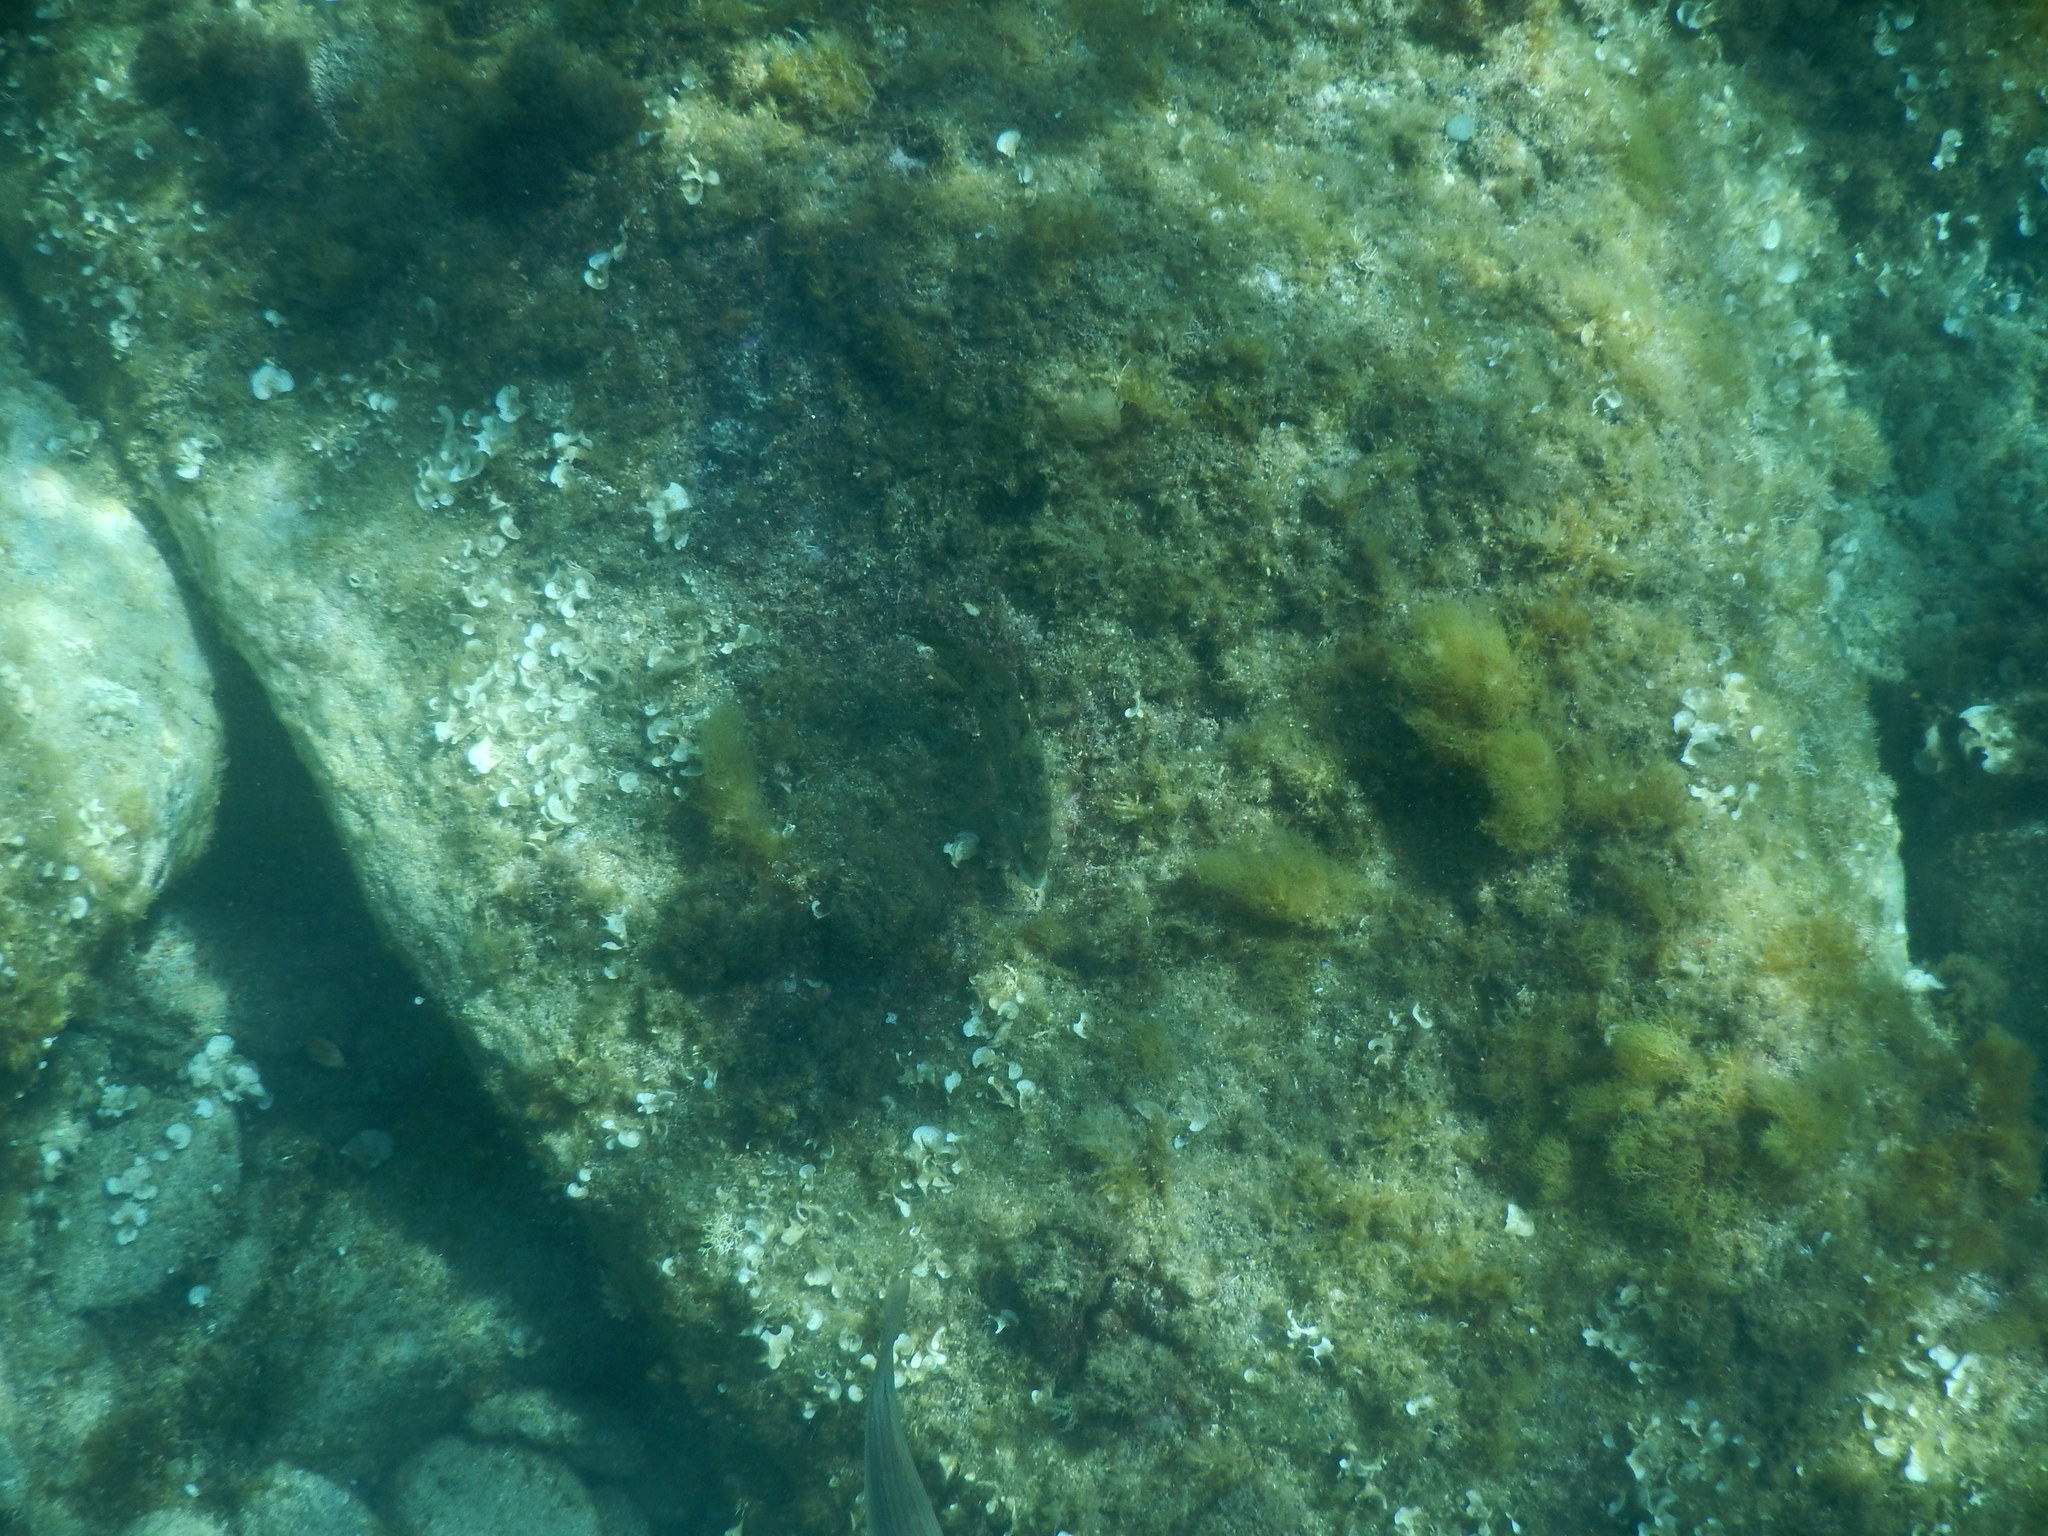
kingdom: Animalia
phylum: Chordata
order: Perciformes
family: Labridae
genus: Symphodus
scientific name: Symphodus tinca
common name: Peacock wrasse
